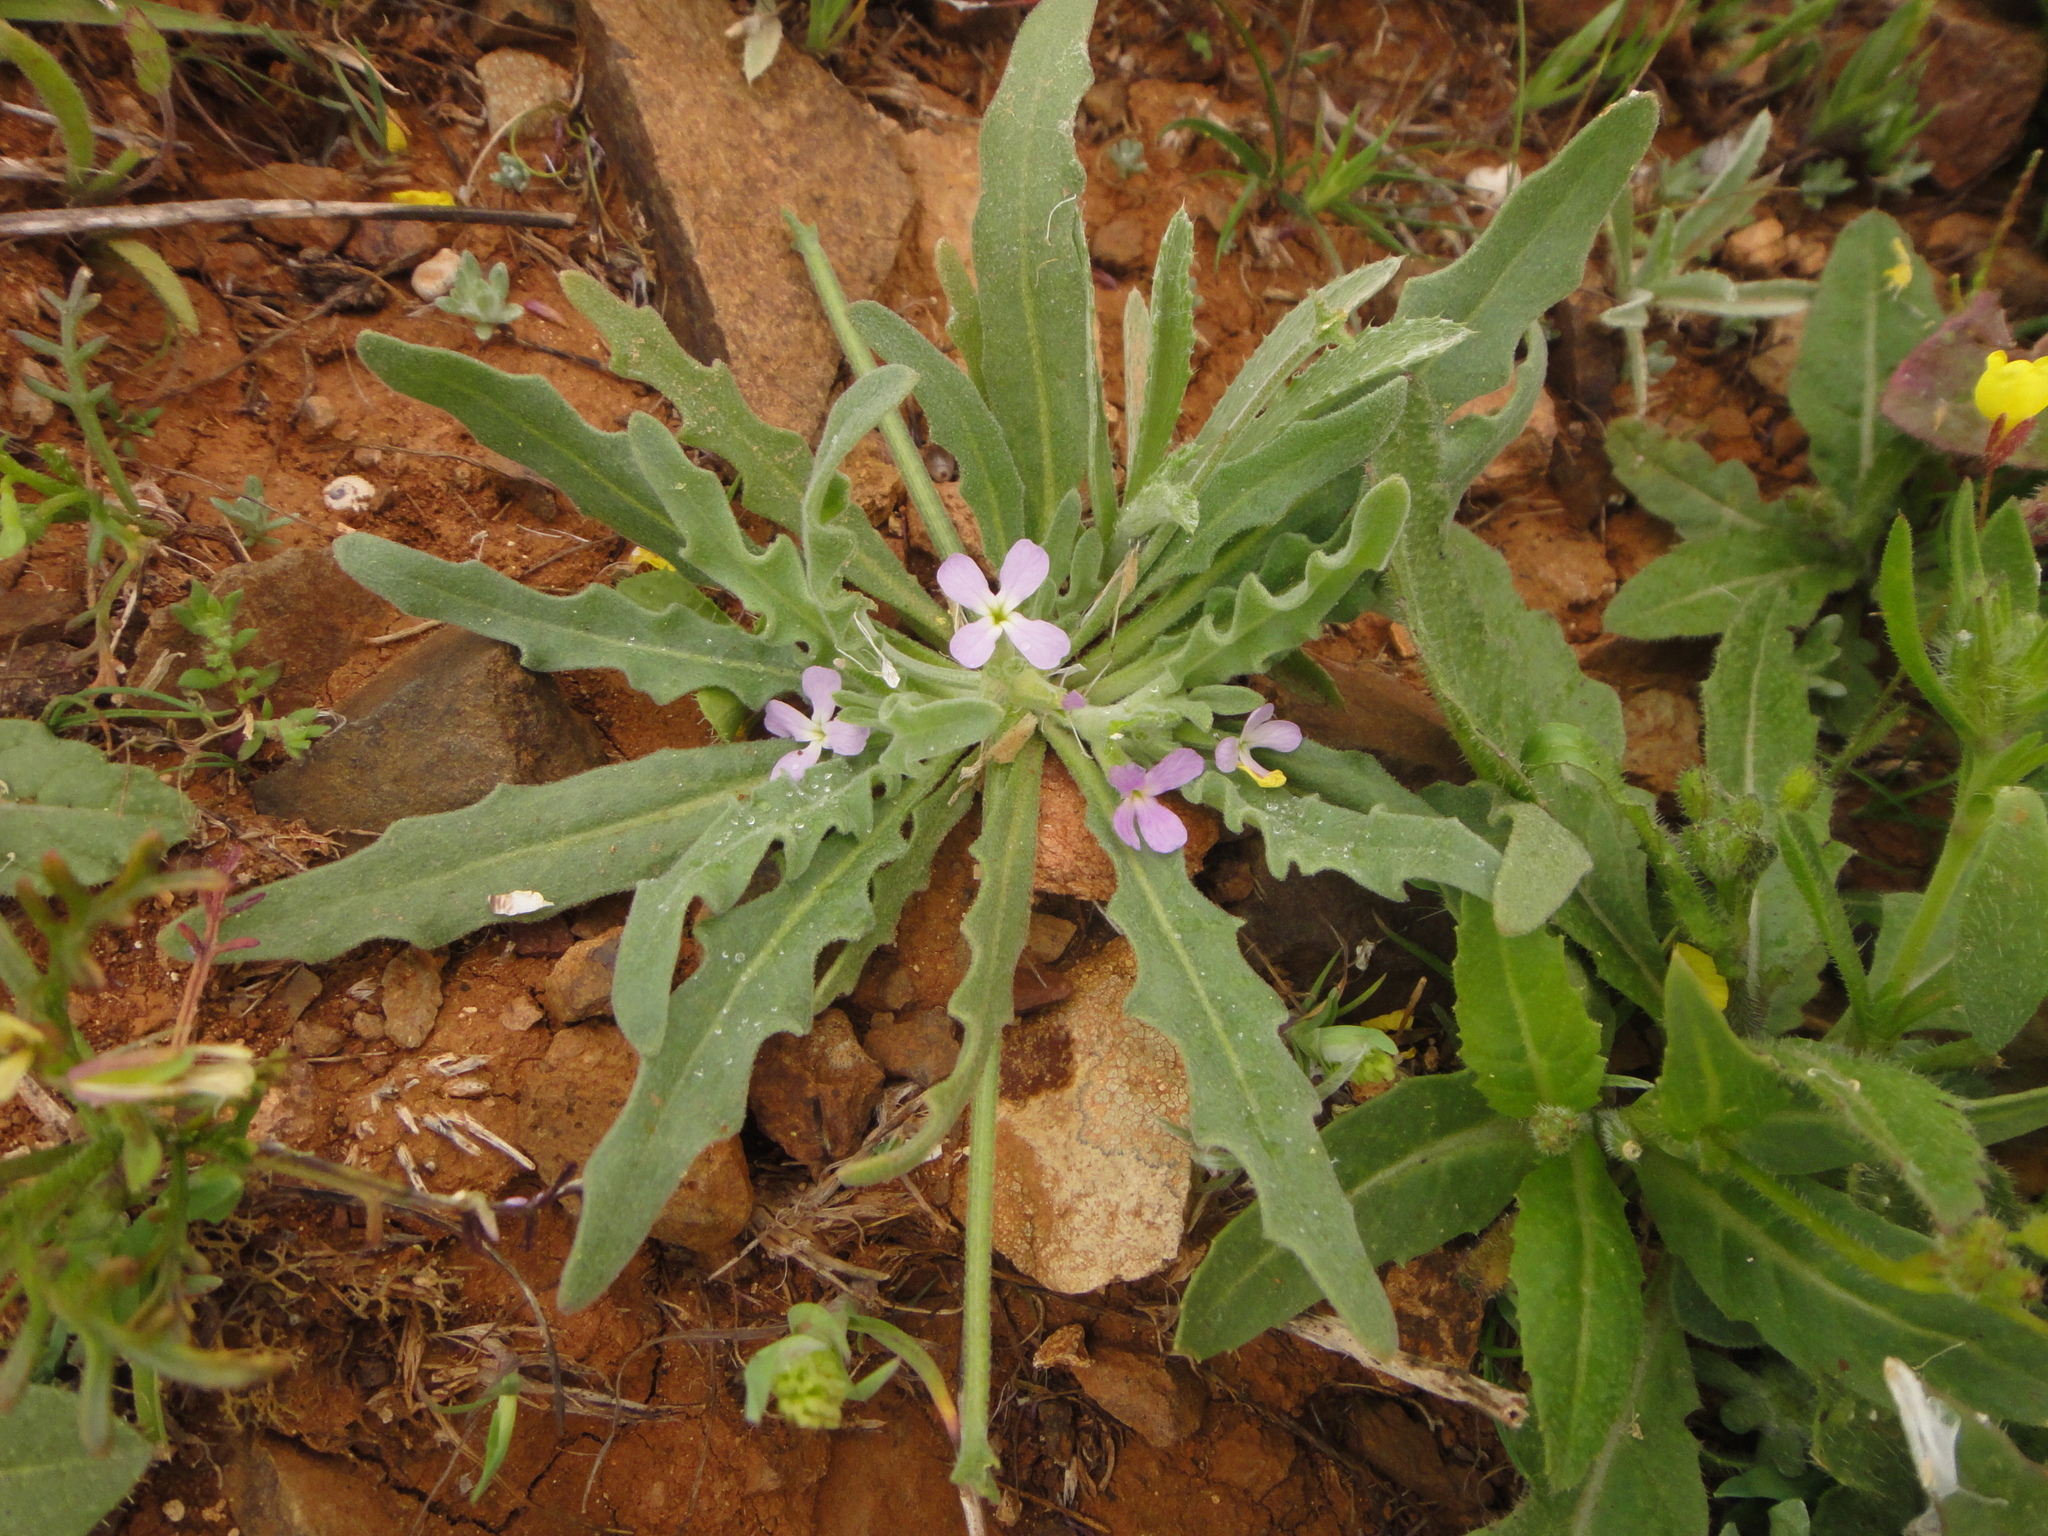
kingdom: Plantae
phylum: Tracheophyta
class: Magnoliopsida
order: Brassicales
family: Brassicaceae
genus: Matthiola
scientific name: Matthiola parviflora
